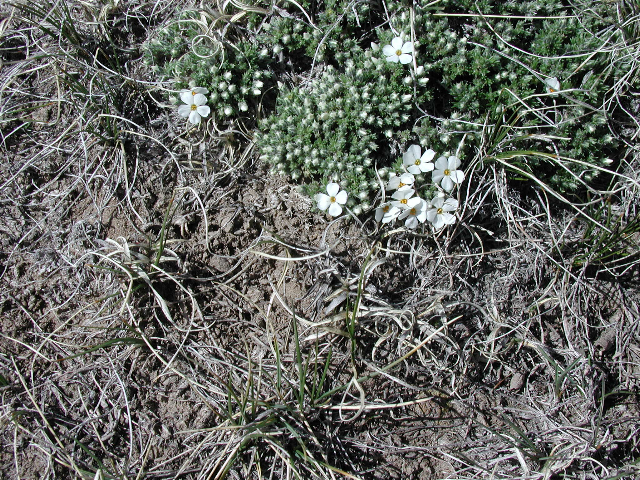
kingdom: Plantae
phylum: Tracheophyta
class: Magnoliopsida
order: Ericales
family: Polemoniaceae
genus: Phlox
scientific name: Phlox hoodii
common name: Moss phlox
